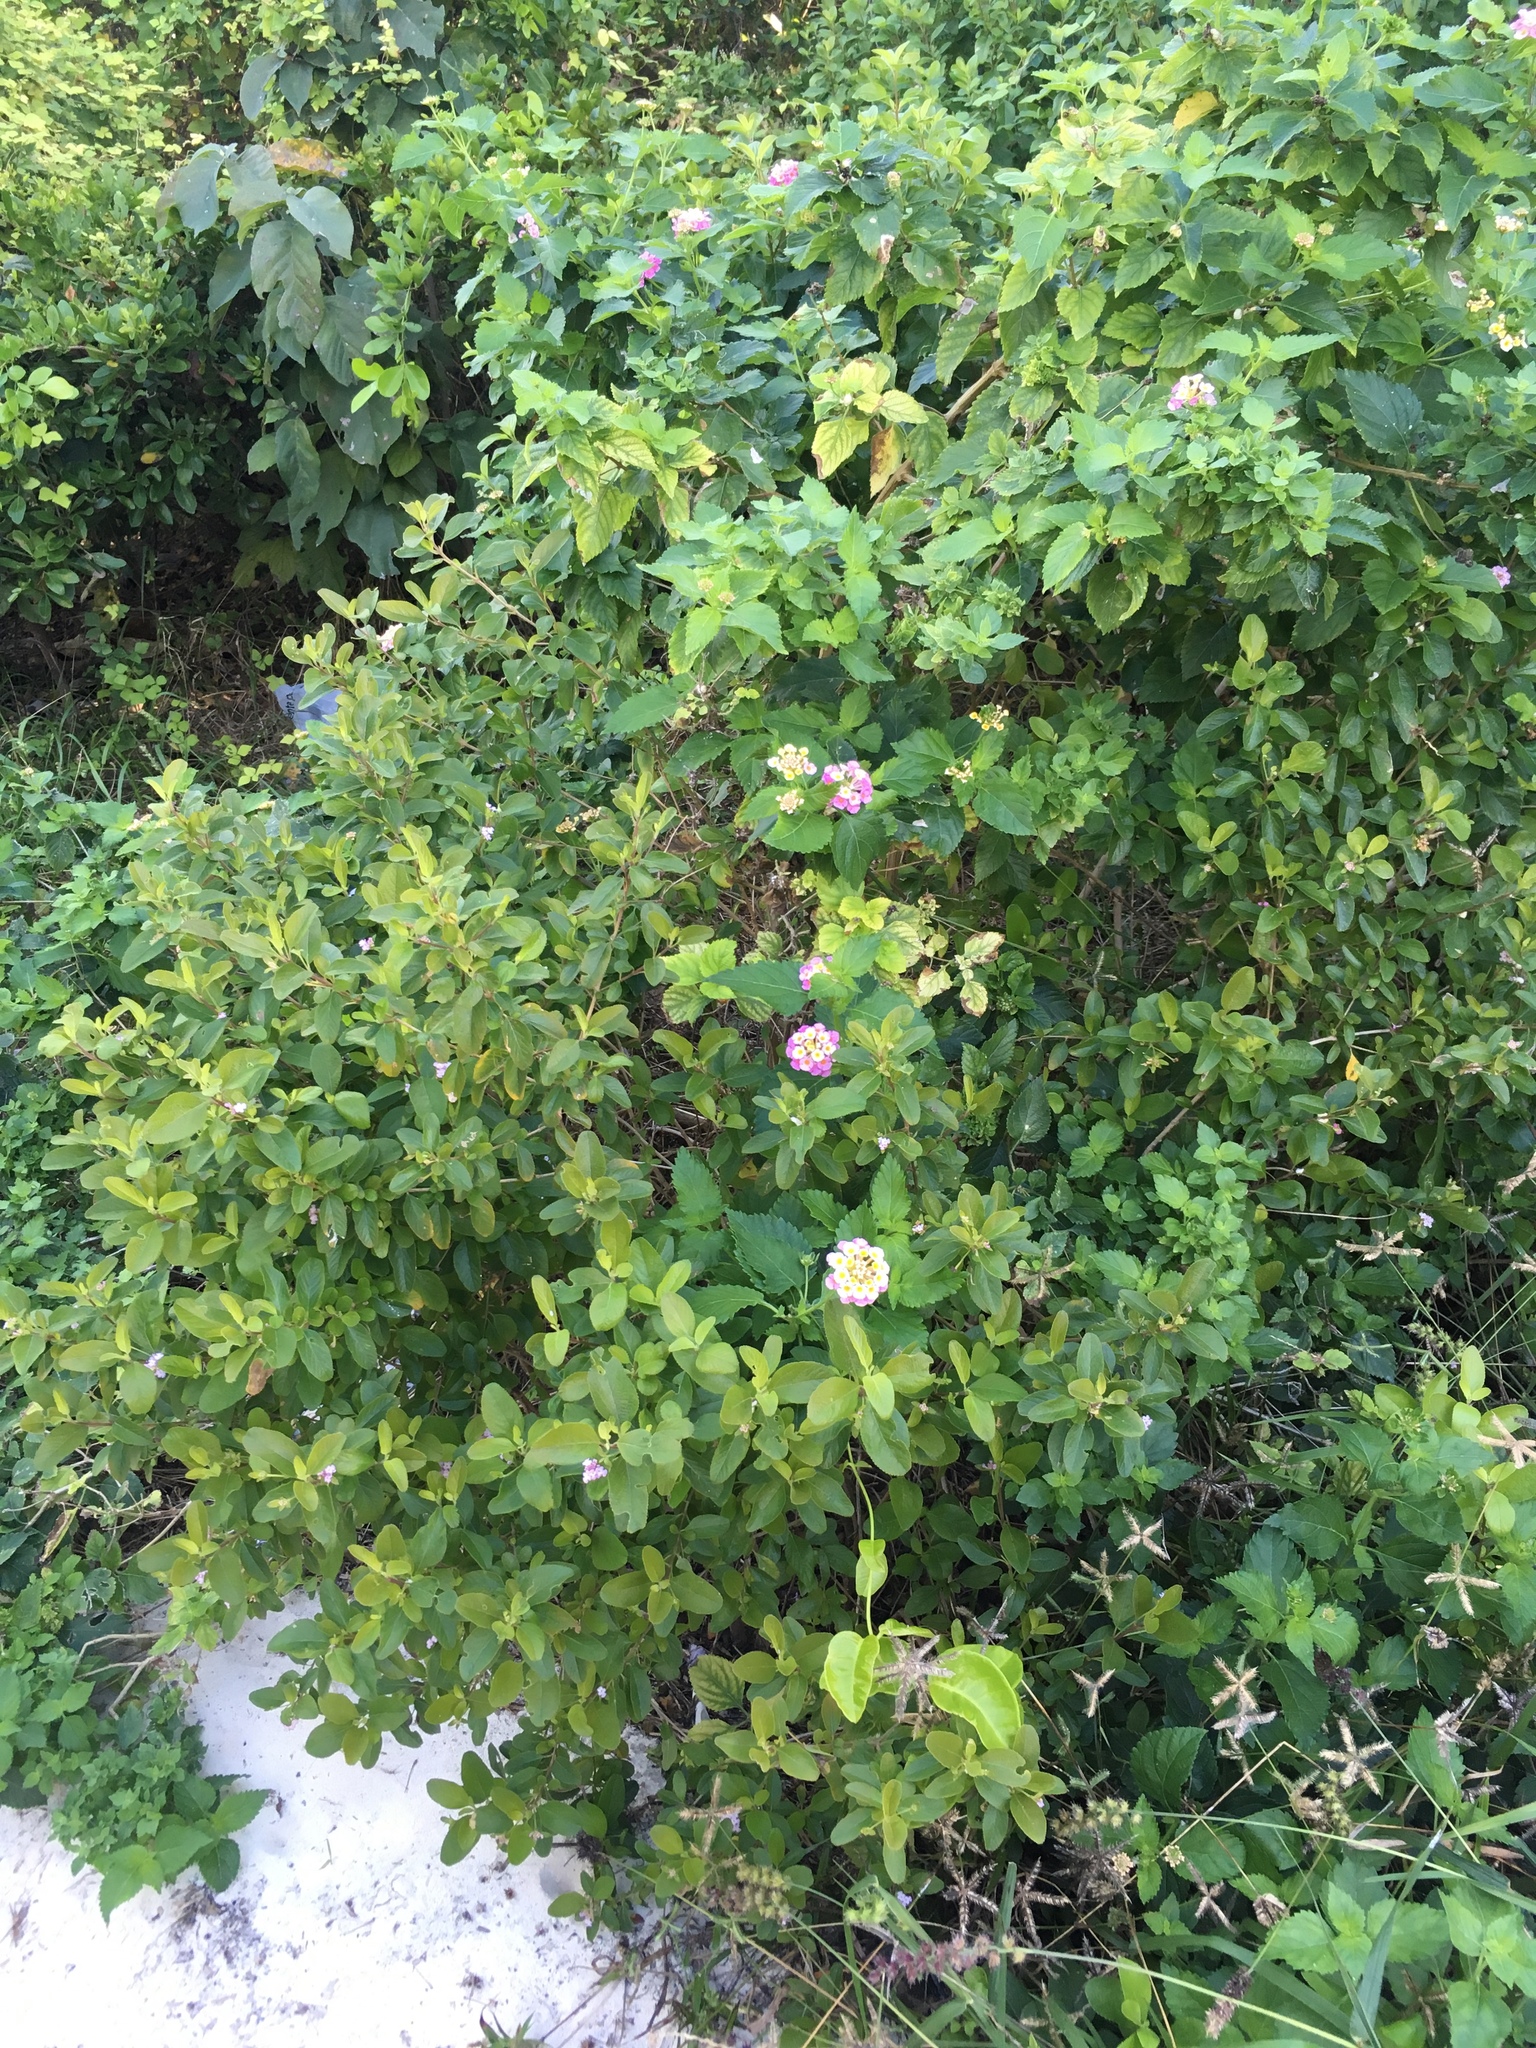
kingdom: Plantae
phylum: Tracheophyta
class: Magnoliopsida
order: Lamiales
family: Verbenaceae
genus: Lantana
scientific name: Lantana camara
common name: Lantana
